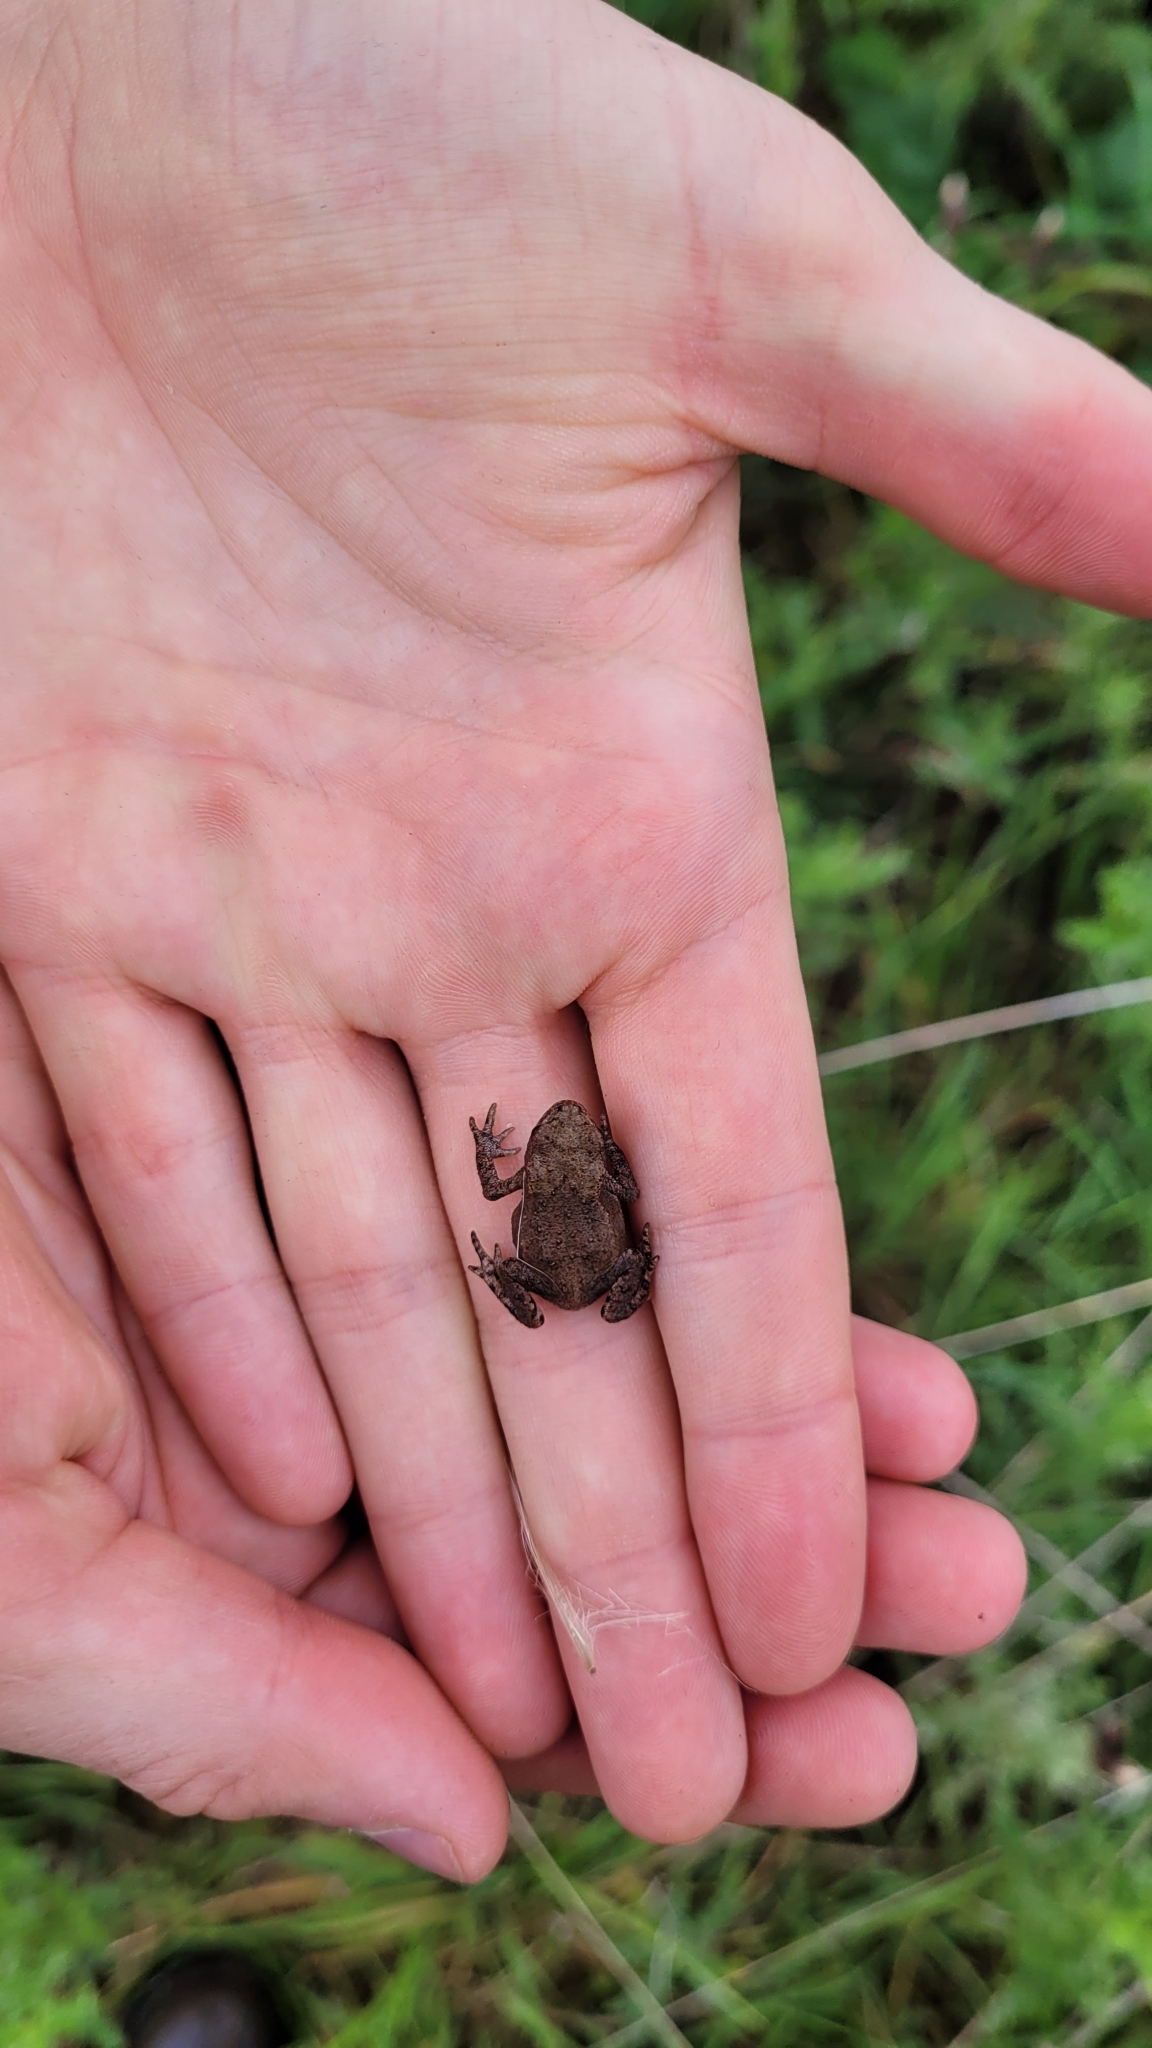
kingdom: Animalia
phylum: Chordata
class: Amphibia
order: Anura
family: Bufonidae
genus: Bufo
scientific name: Bufo bufo
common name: Common toad
